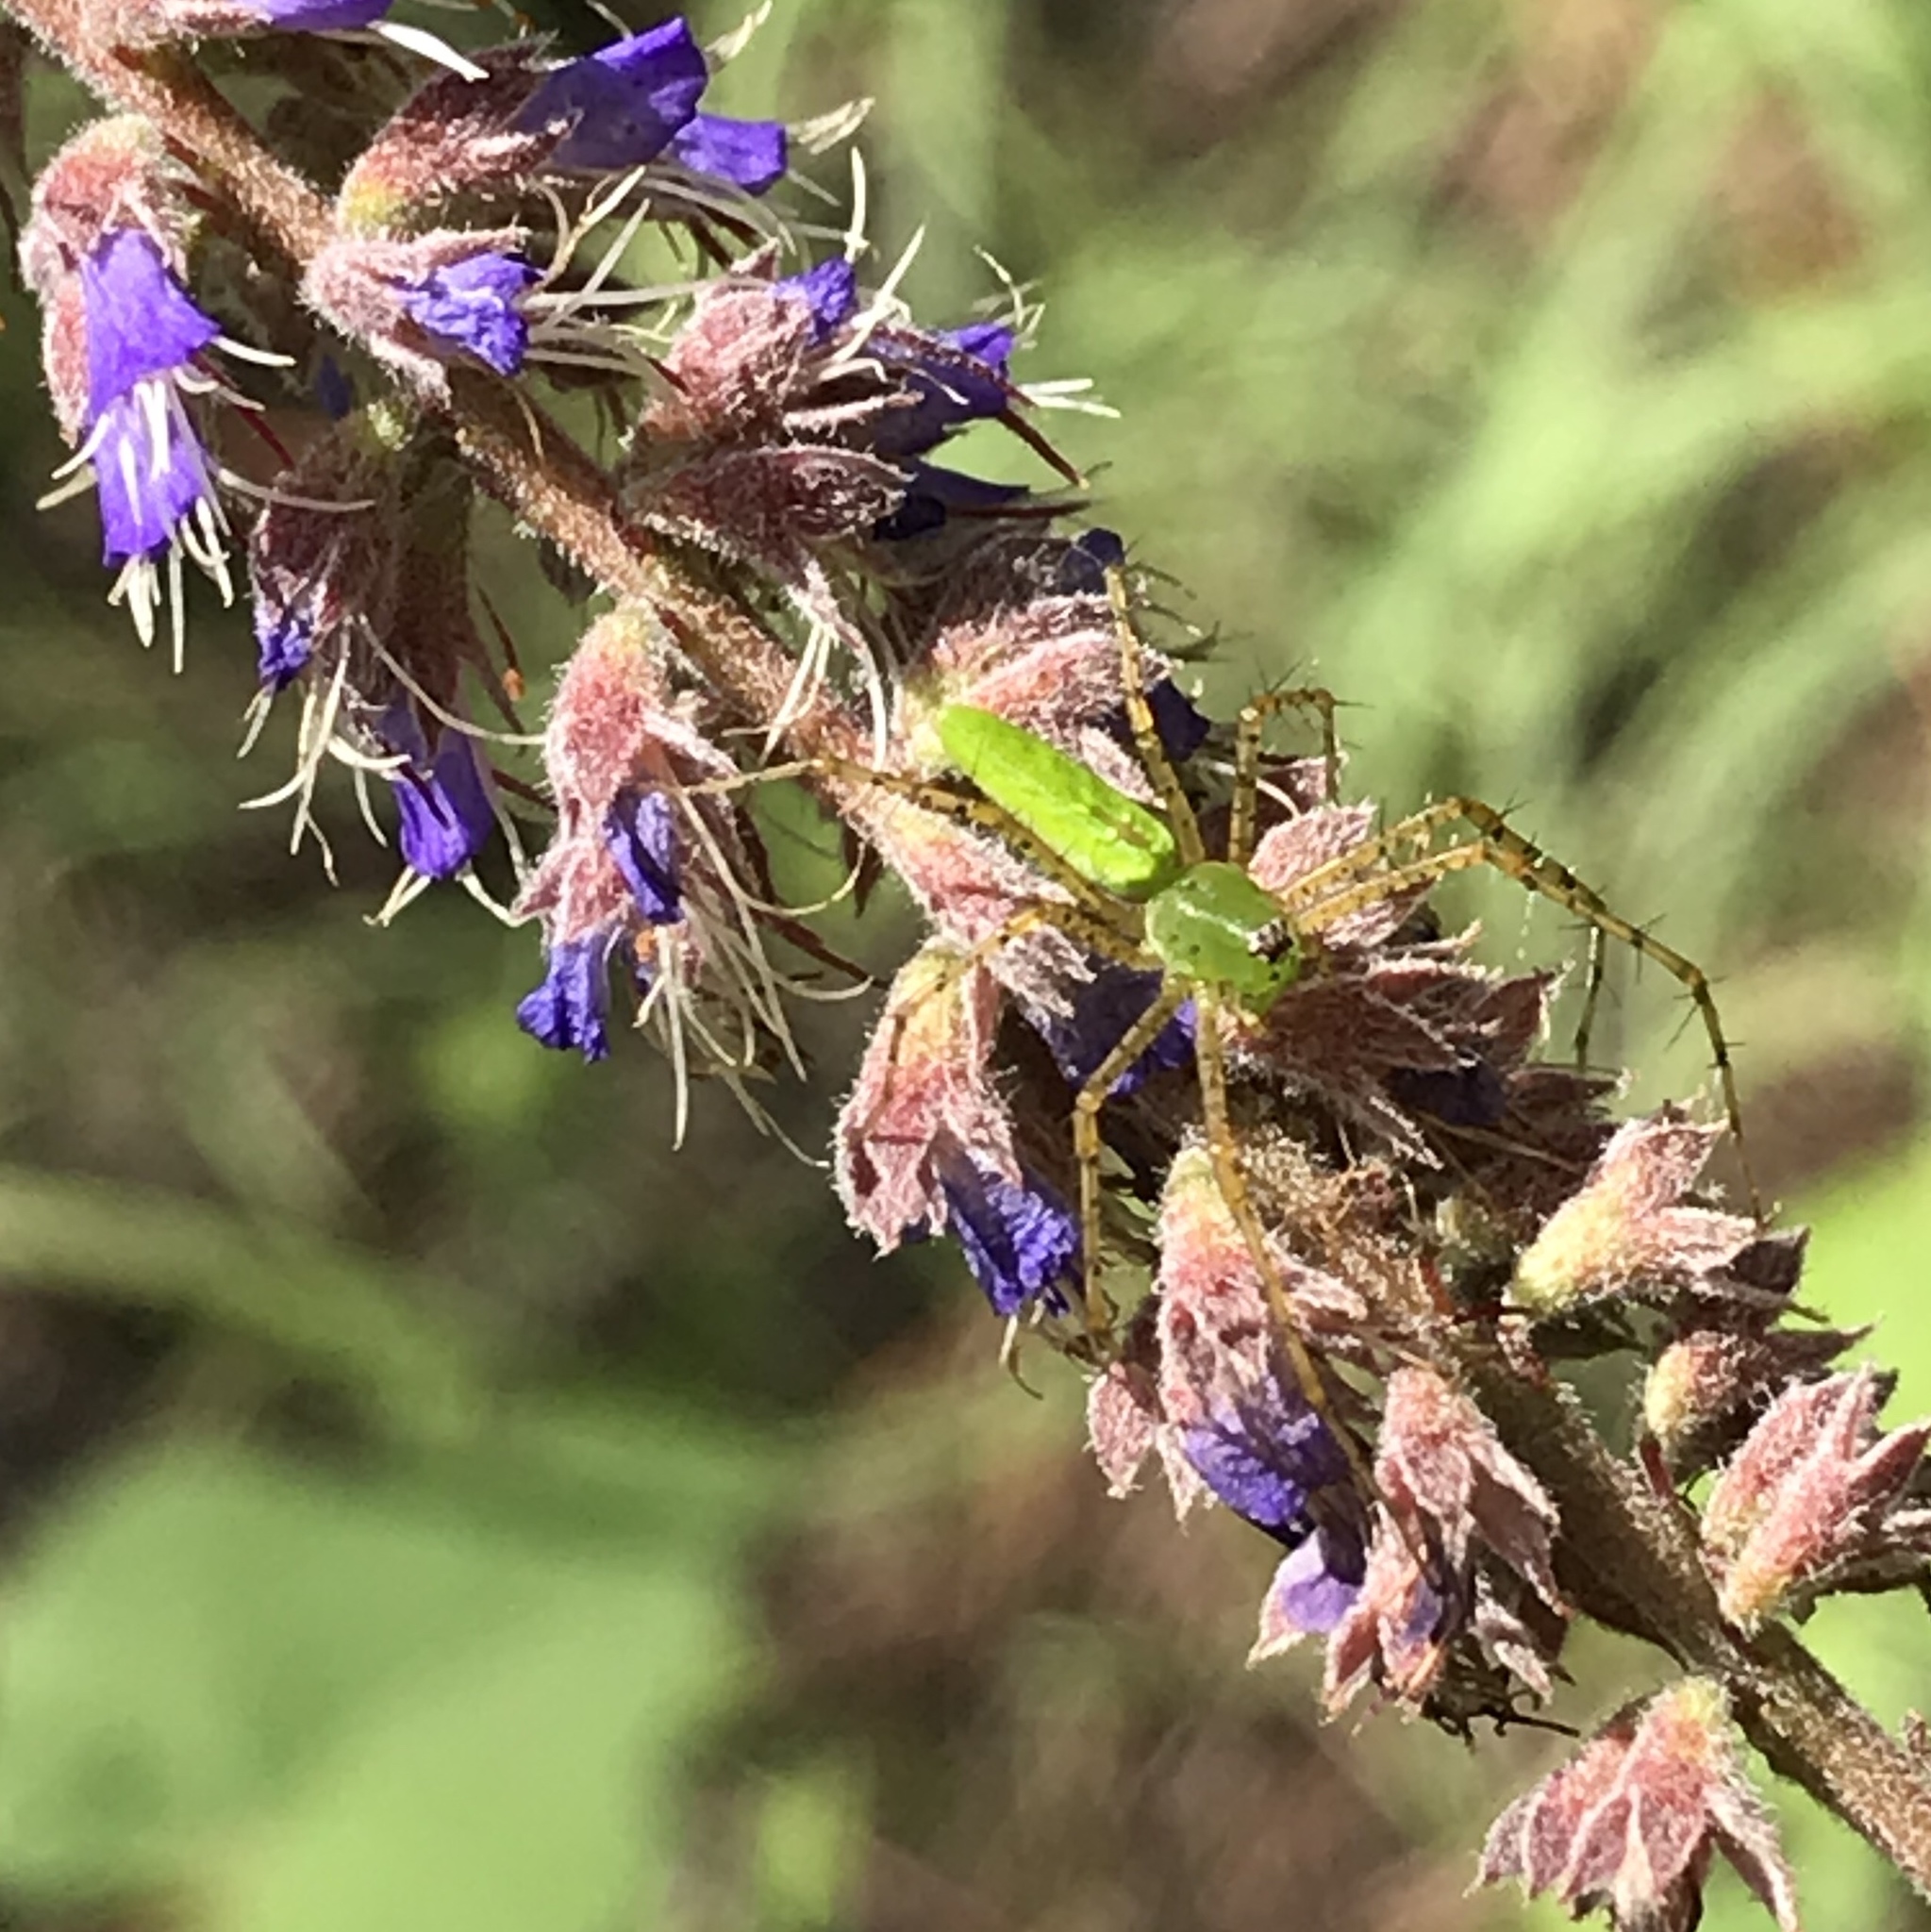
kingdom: Animalia
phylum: Arthropoda
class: Arachnida
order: Araneae
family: Oxyopidae
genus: Peucetia
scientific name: Peucetia viridans
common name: Lynx spiders
